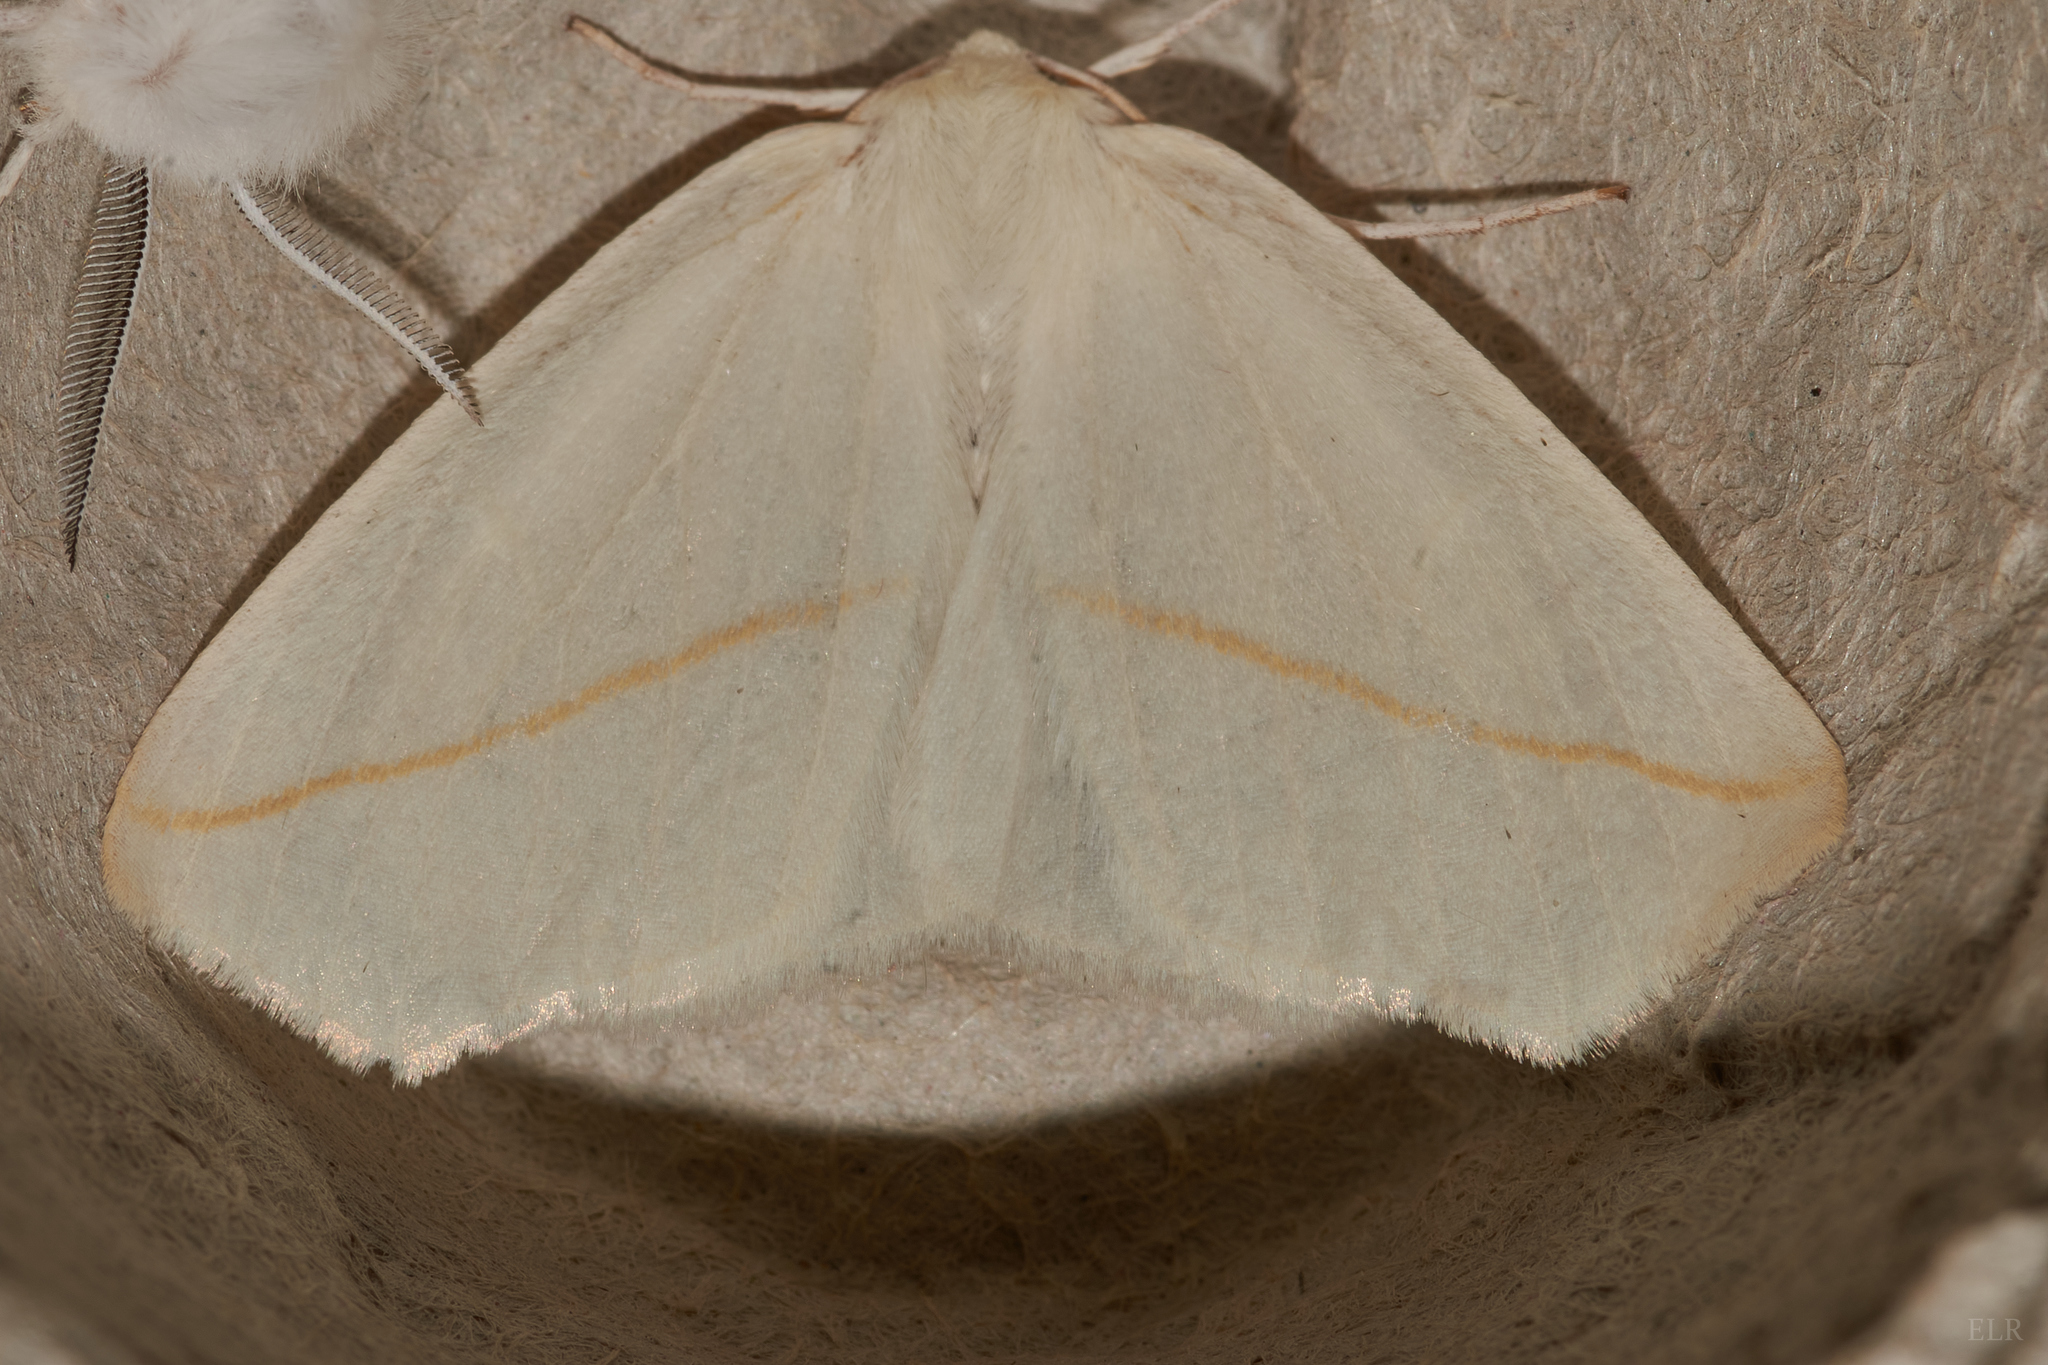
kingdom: Animalia
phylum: Arthropoda
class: Insecta
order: Lepidoptera
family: Geometridae
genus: Tetracis
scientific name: Tetracis cachexiata
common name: White slant-line
